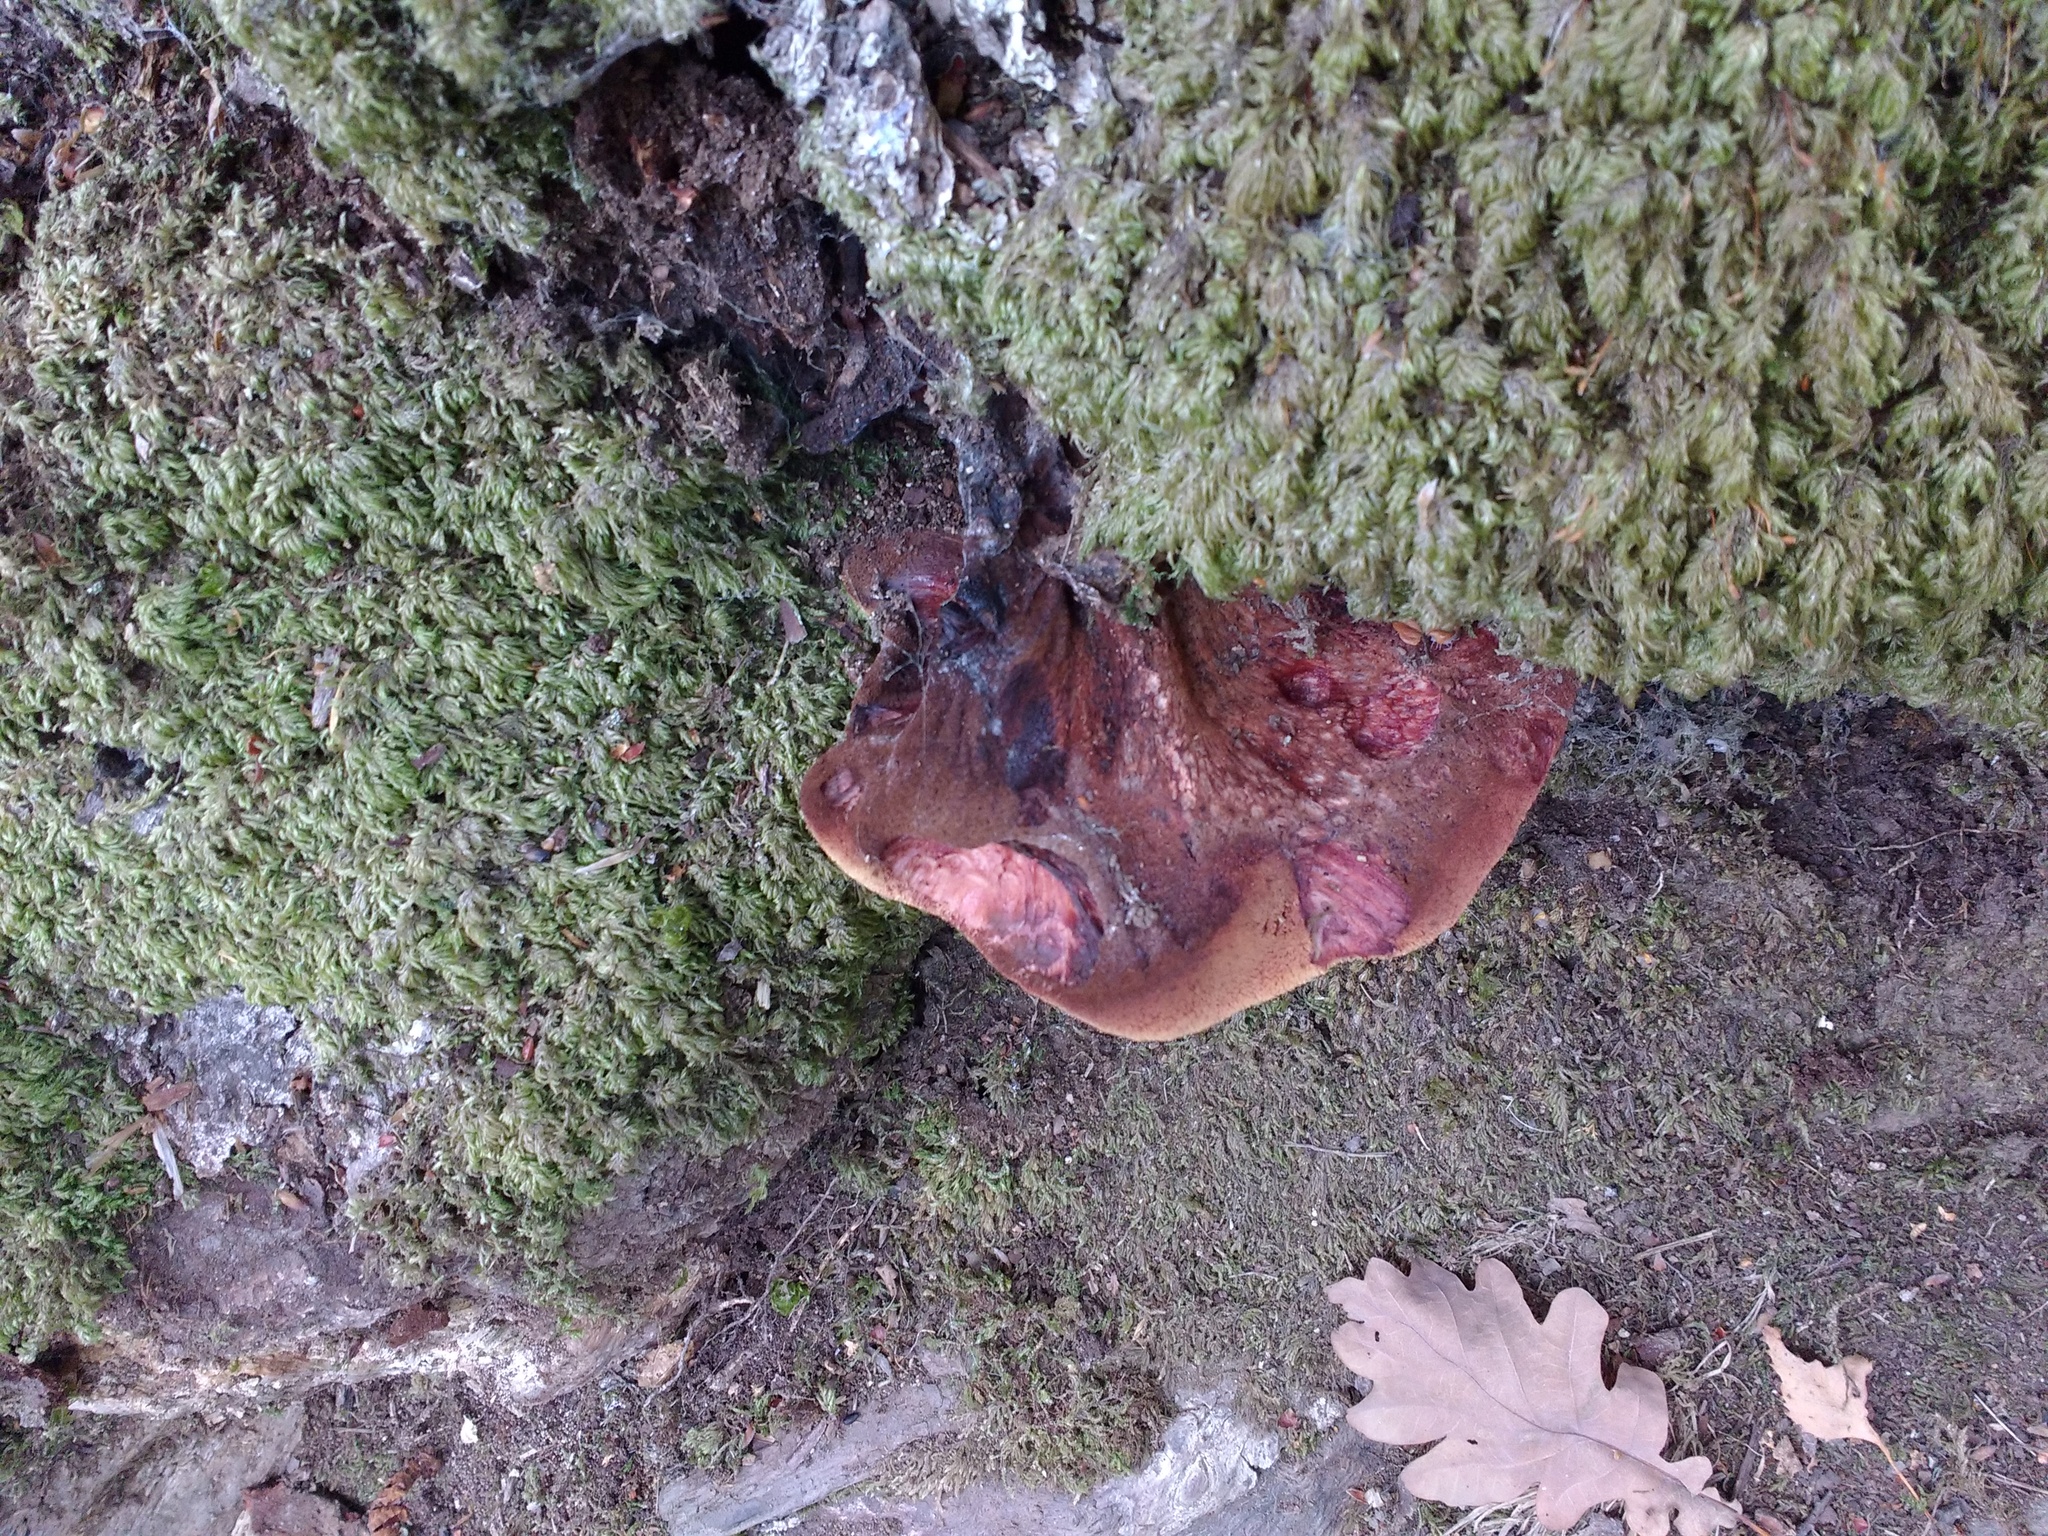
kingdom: Fungi
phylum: Basidiomycota
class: Agaricomycetes
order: Agaricales
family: Fistulinaceae
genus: Fistulina
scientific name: Fistulina hepatica
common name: Beef-steak fungus
